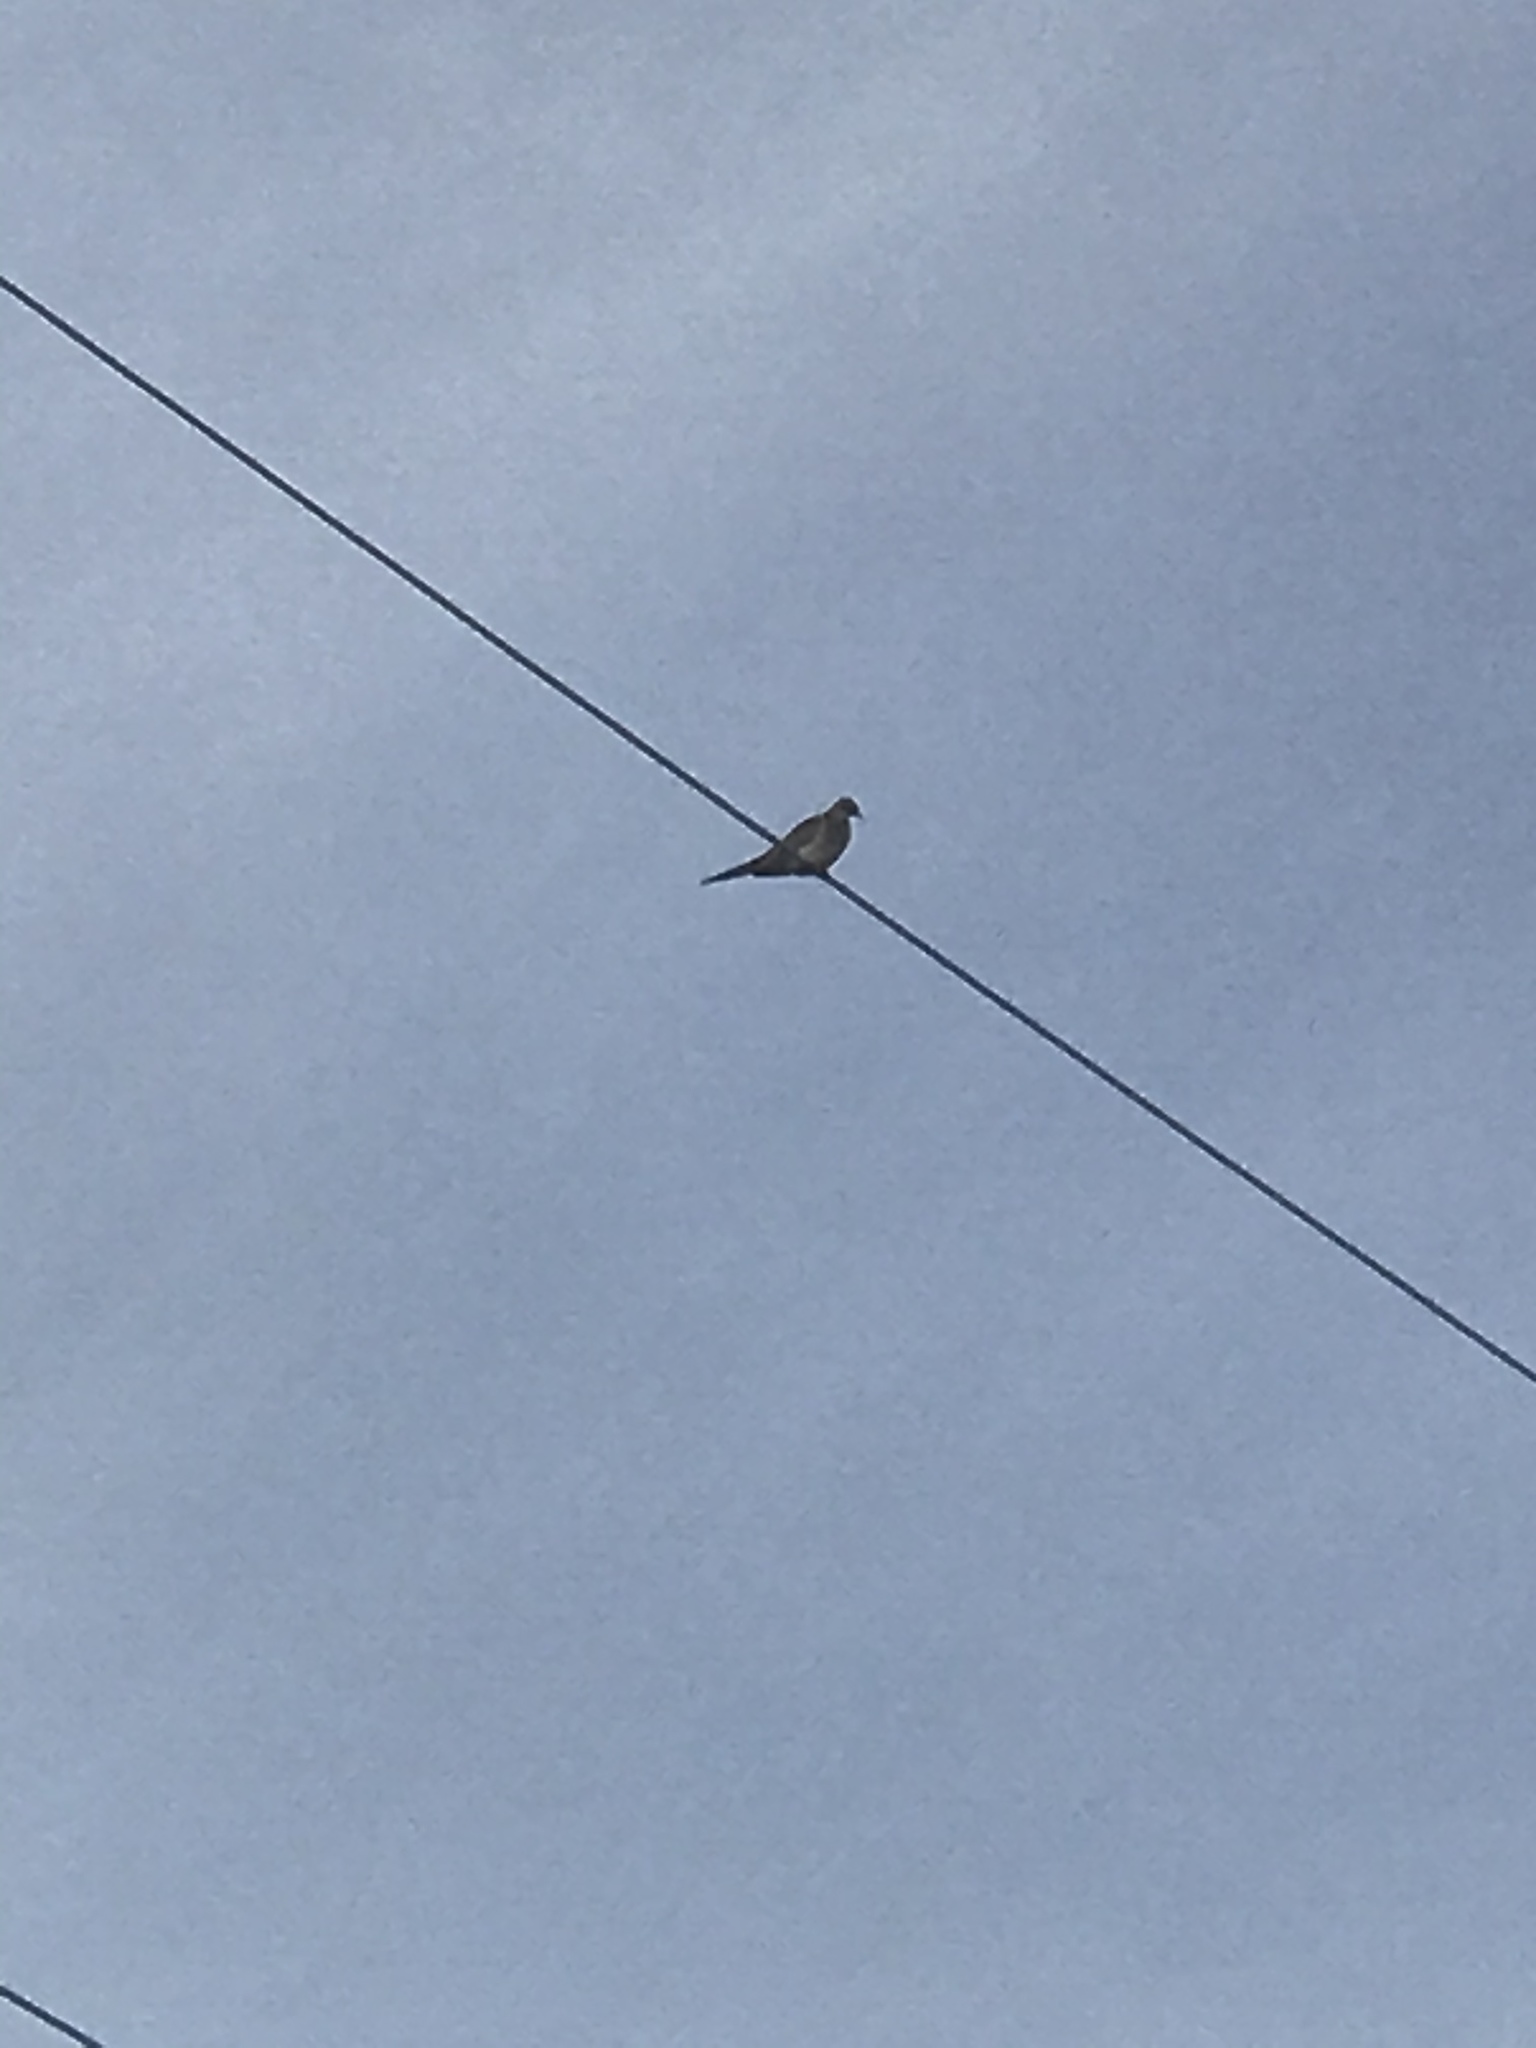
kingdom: Animalia
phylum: Chordata
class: Aves
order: Columbiformes
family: Columbidae
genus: Zenaida
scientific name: Zenaida macroura
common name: Mourning dove
